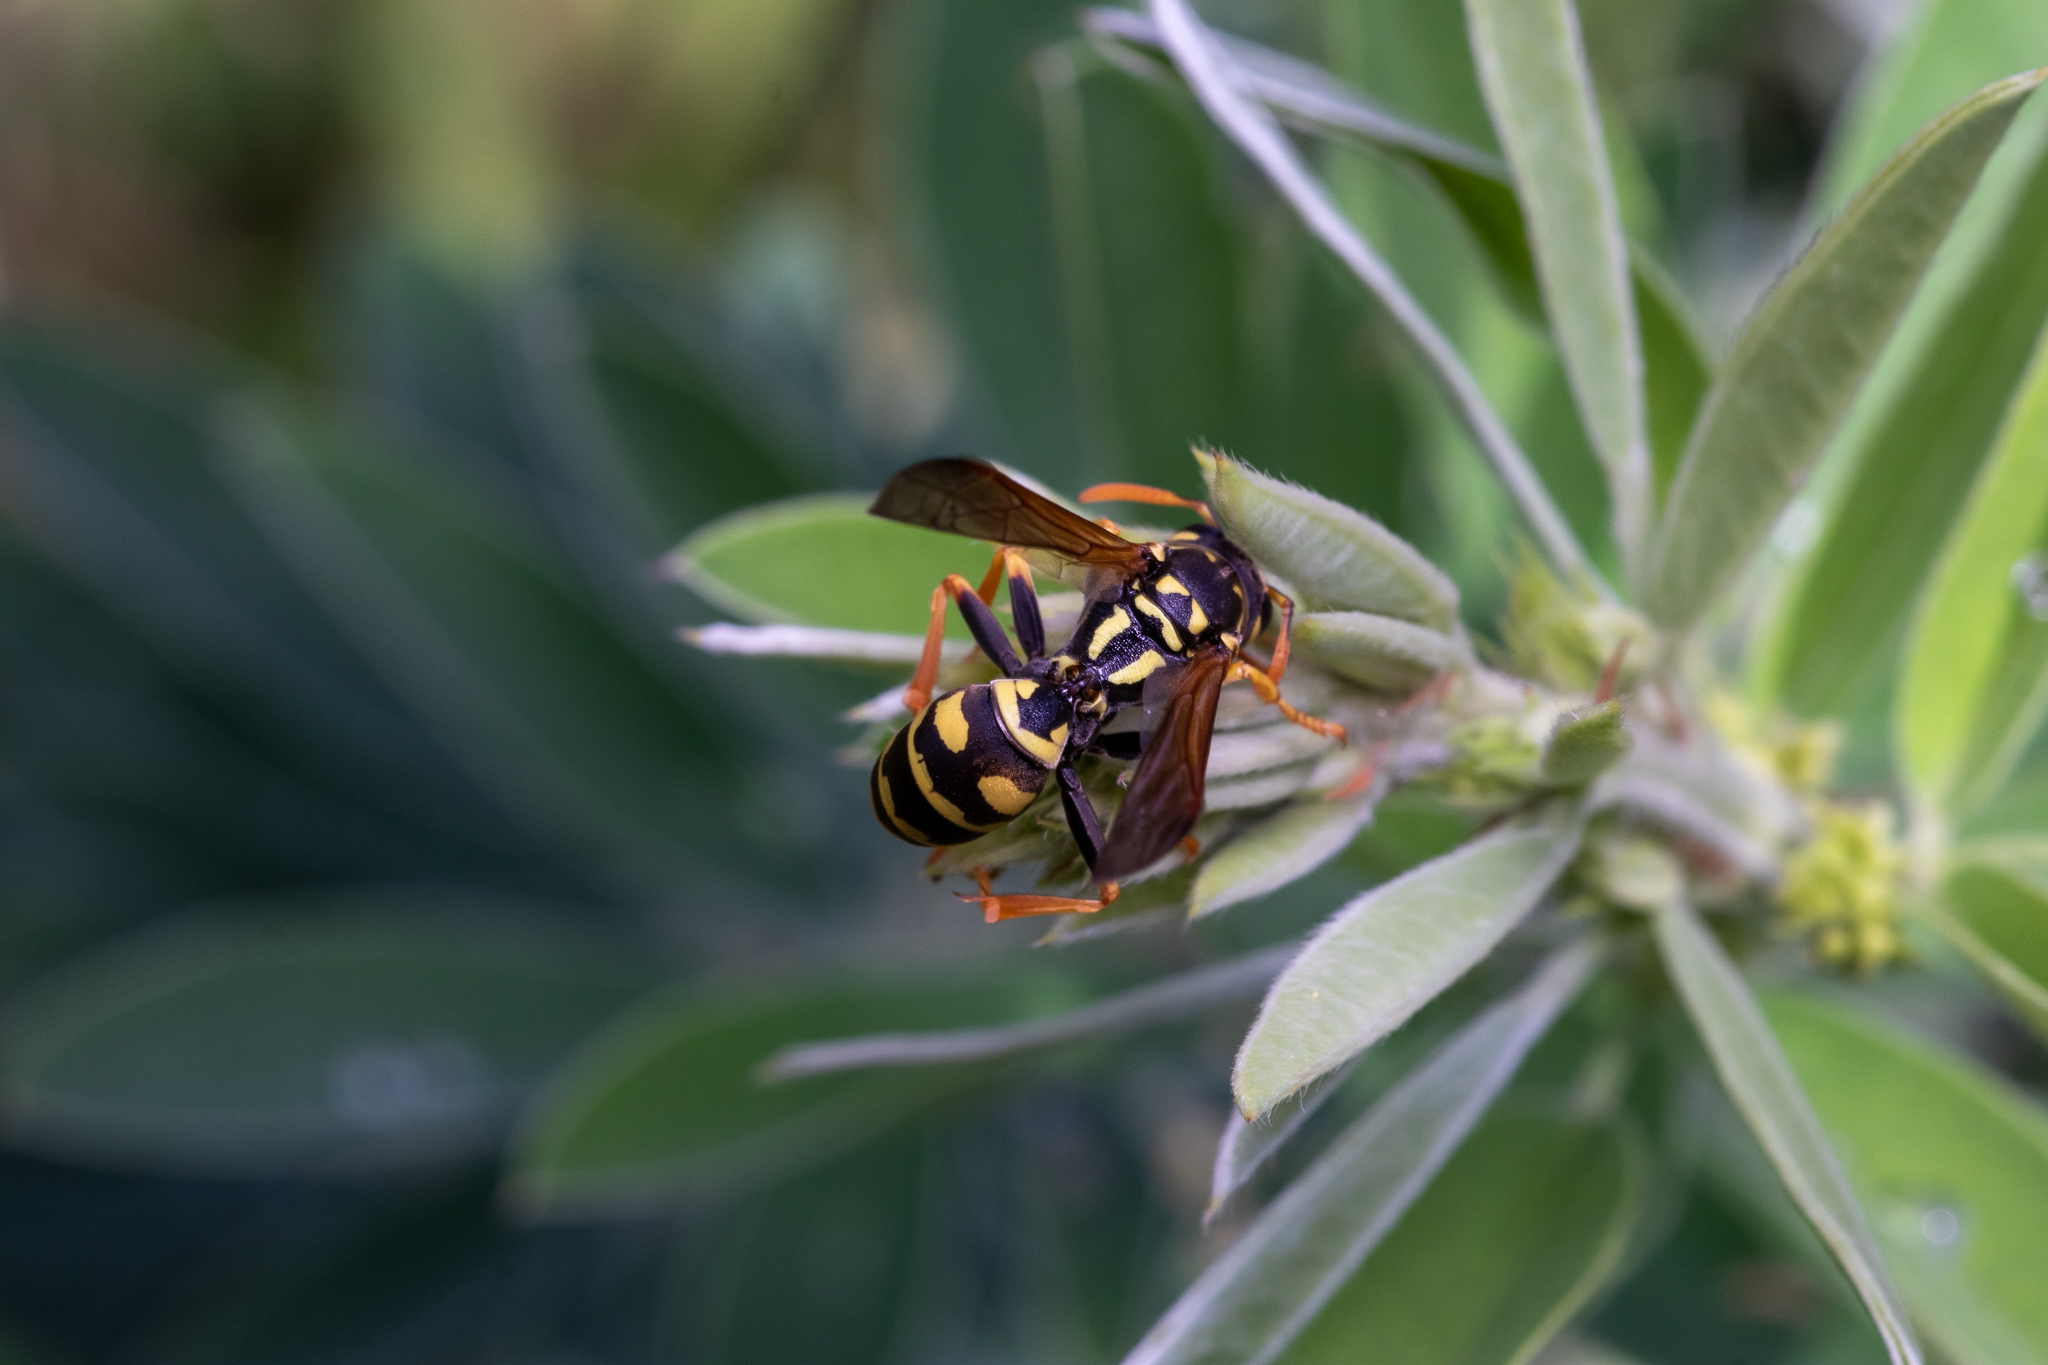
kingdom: Animalia
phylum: Arthropoda
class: Insecta
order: Hymenoptera
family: Eumenidae
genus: Polistes
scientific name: Polistes dominula
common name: Paper wasp
